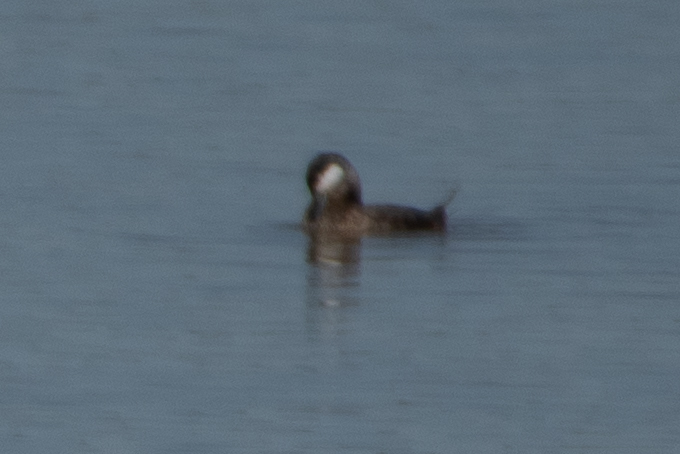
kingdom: Animalia
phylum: Chordata
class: Aves
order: Anseriformes
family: Anatidae
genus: Oxyura
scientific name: Oxyura jamaicensis
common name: Ruddy duck
